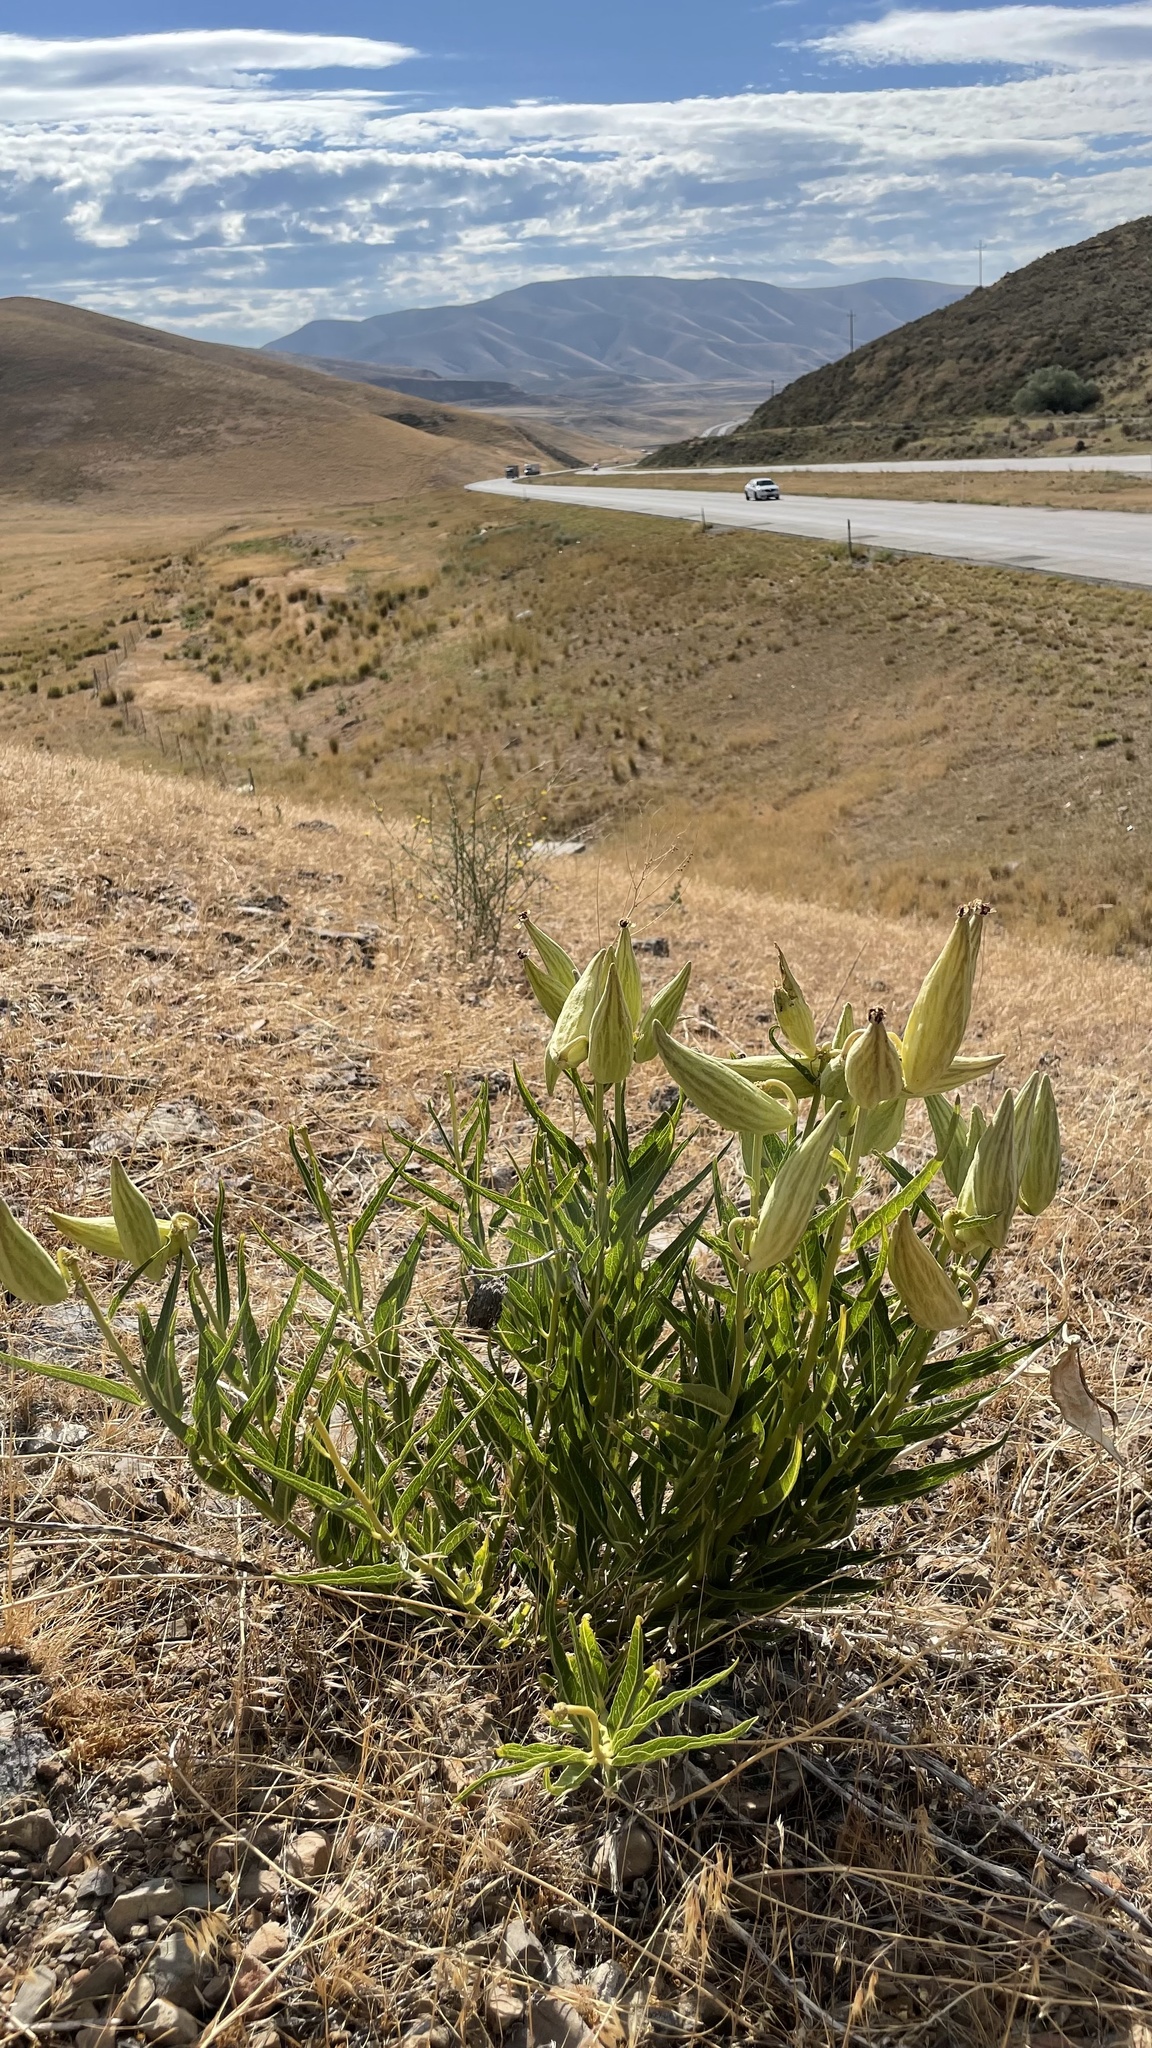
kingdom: Plantae
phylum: Tracheophyta
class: Magnoliopsida
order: Gentianales
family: Apocynaceae
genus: Asclepias
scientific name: Asclepias asperula
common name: Antelope horns
